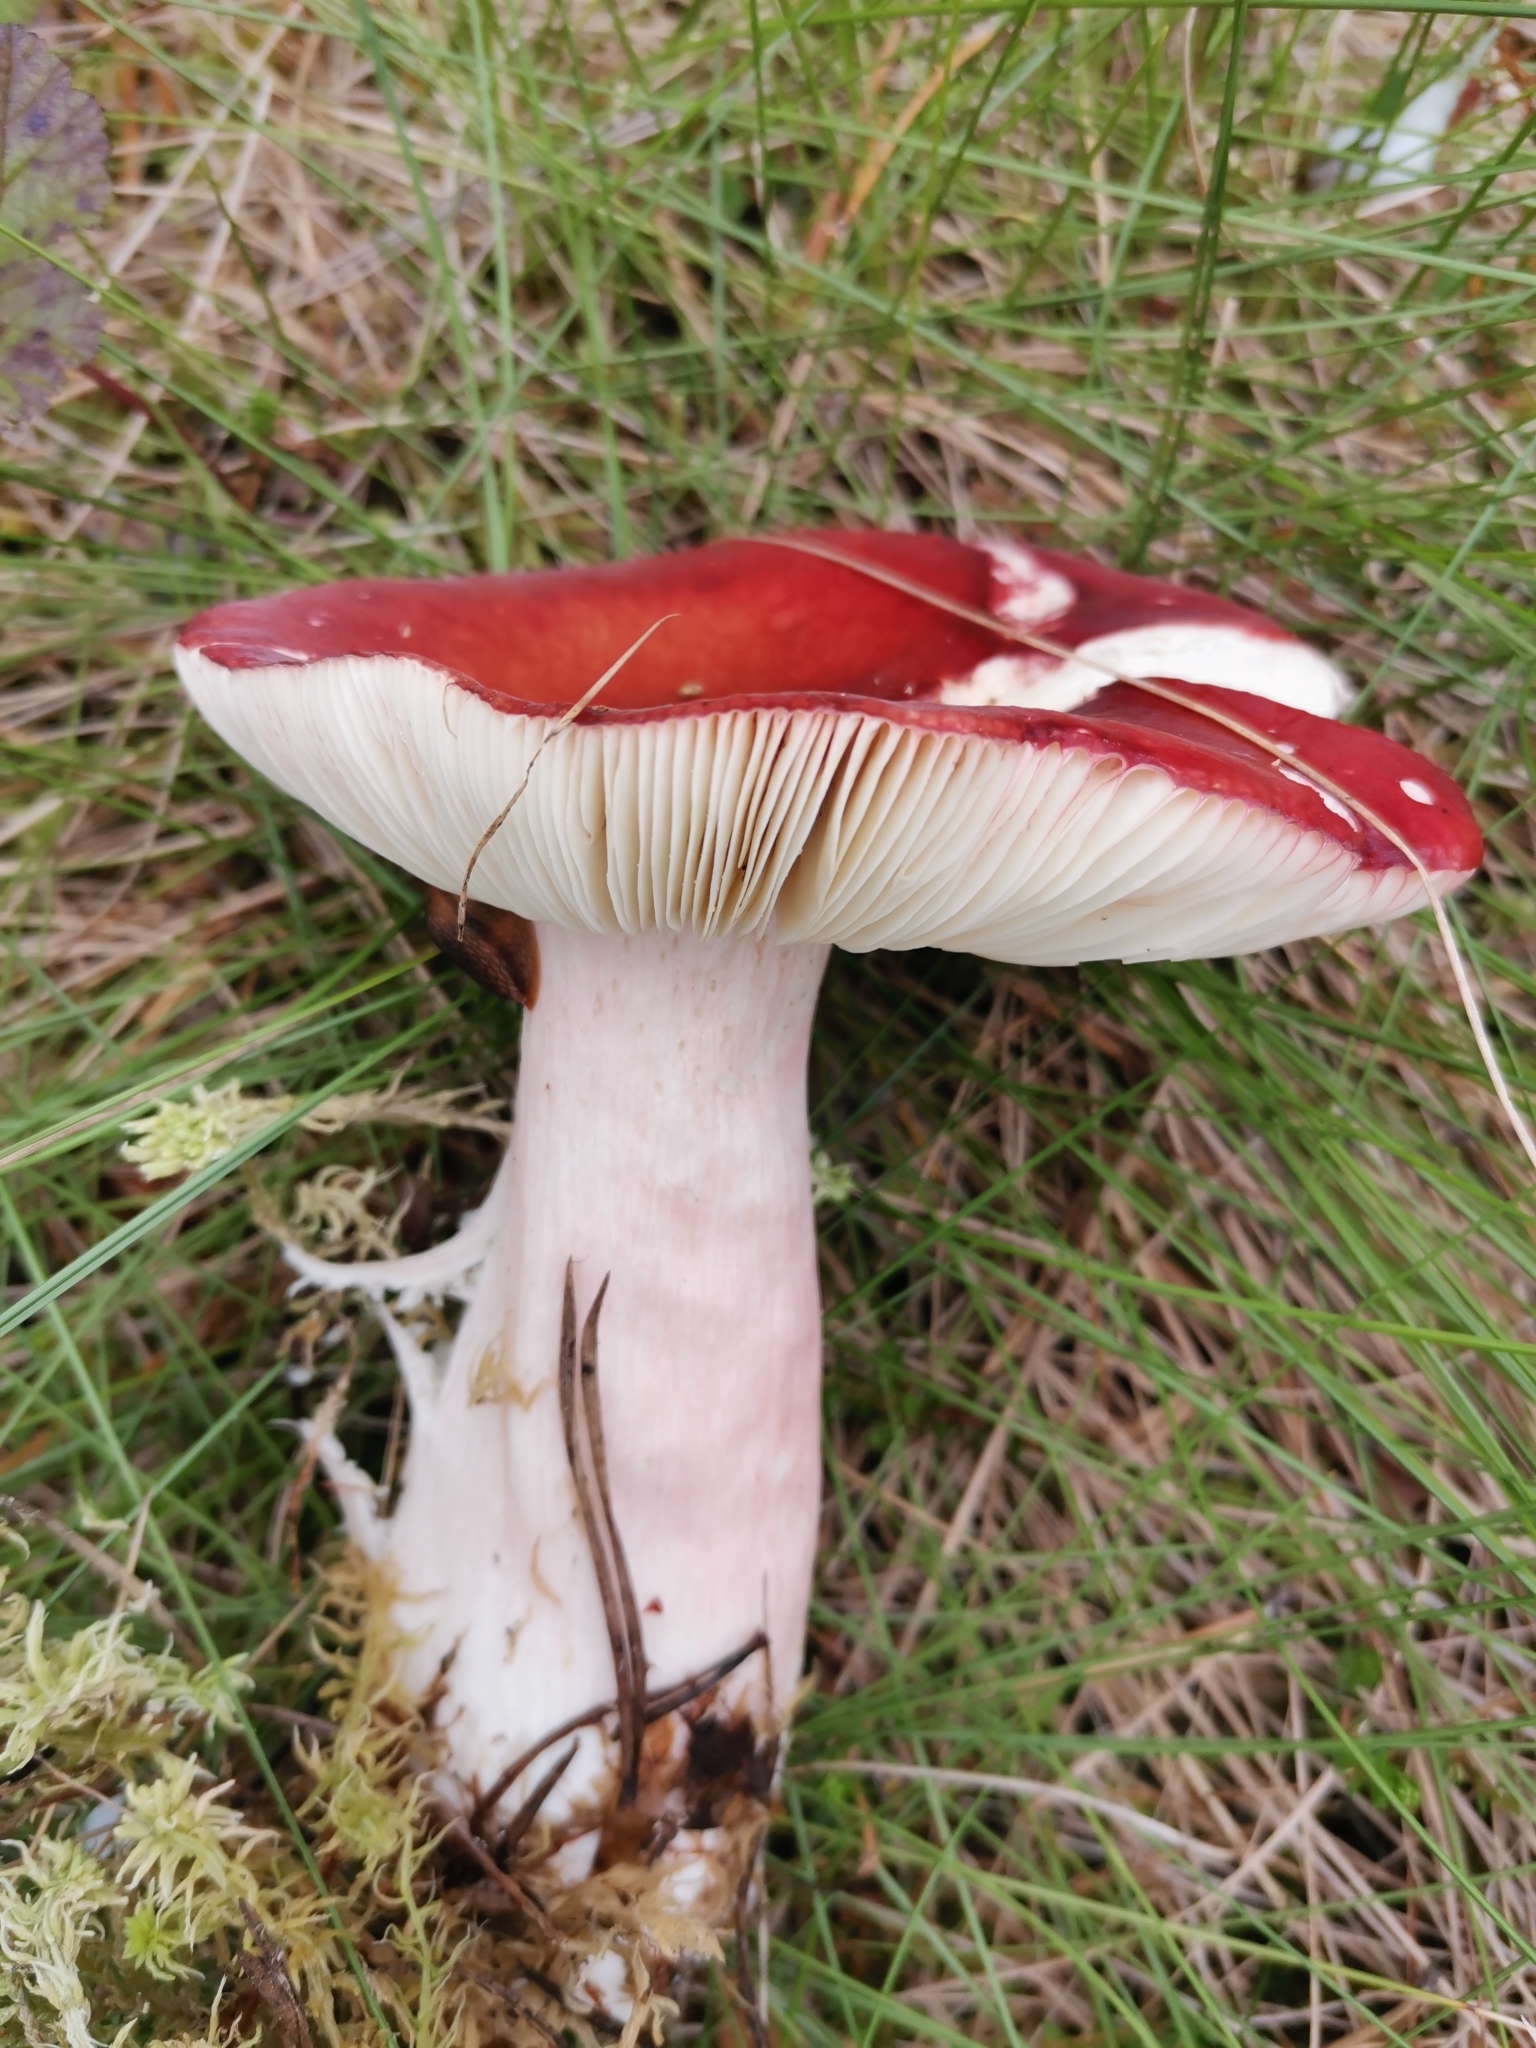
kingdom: Fungi
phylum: Basidiomycota
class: Agaricomycetes
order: Russulales
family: Russulaceae
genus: Russula
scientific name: Russula paludosa
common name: Hintapink
